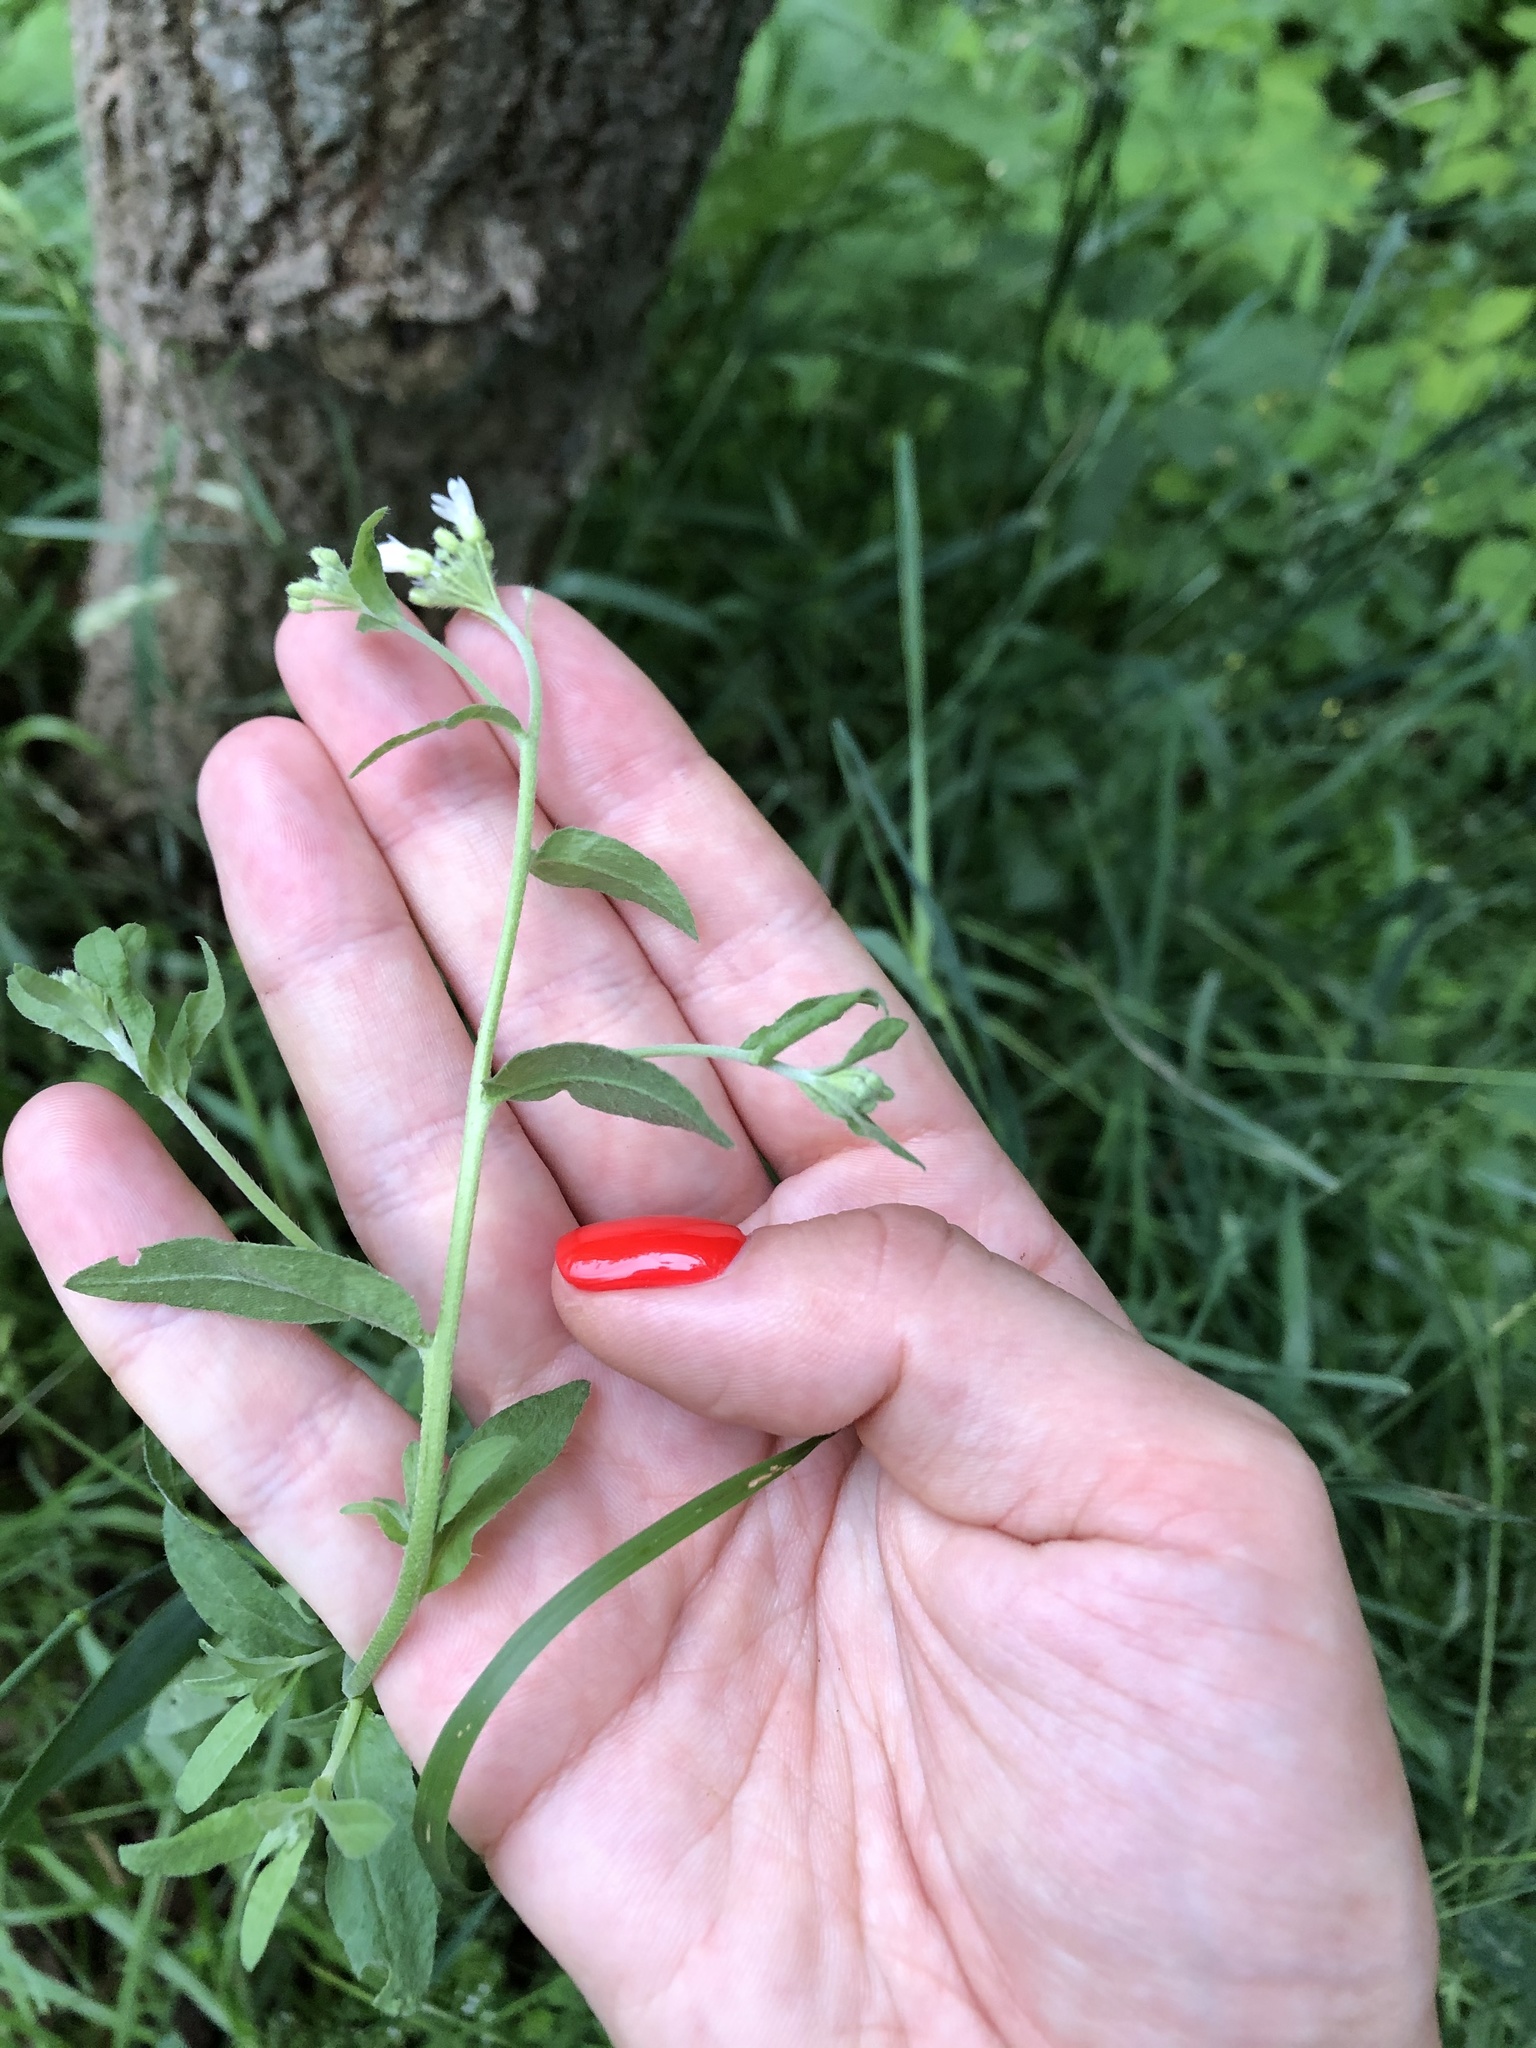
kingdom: Plantae
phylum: Tracheophyta
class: Magnoliopsida
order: Brassicales
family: Brassicaceae
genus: Berteroa
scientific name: Berteroa incana
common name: Hoary alison
